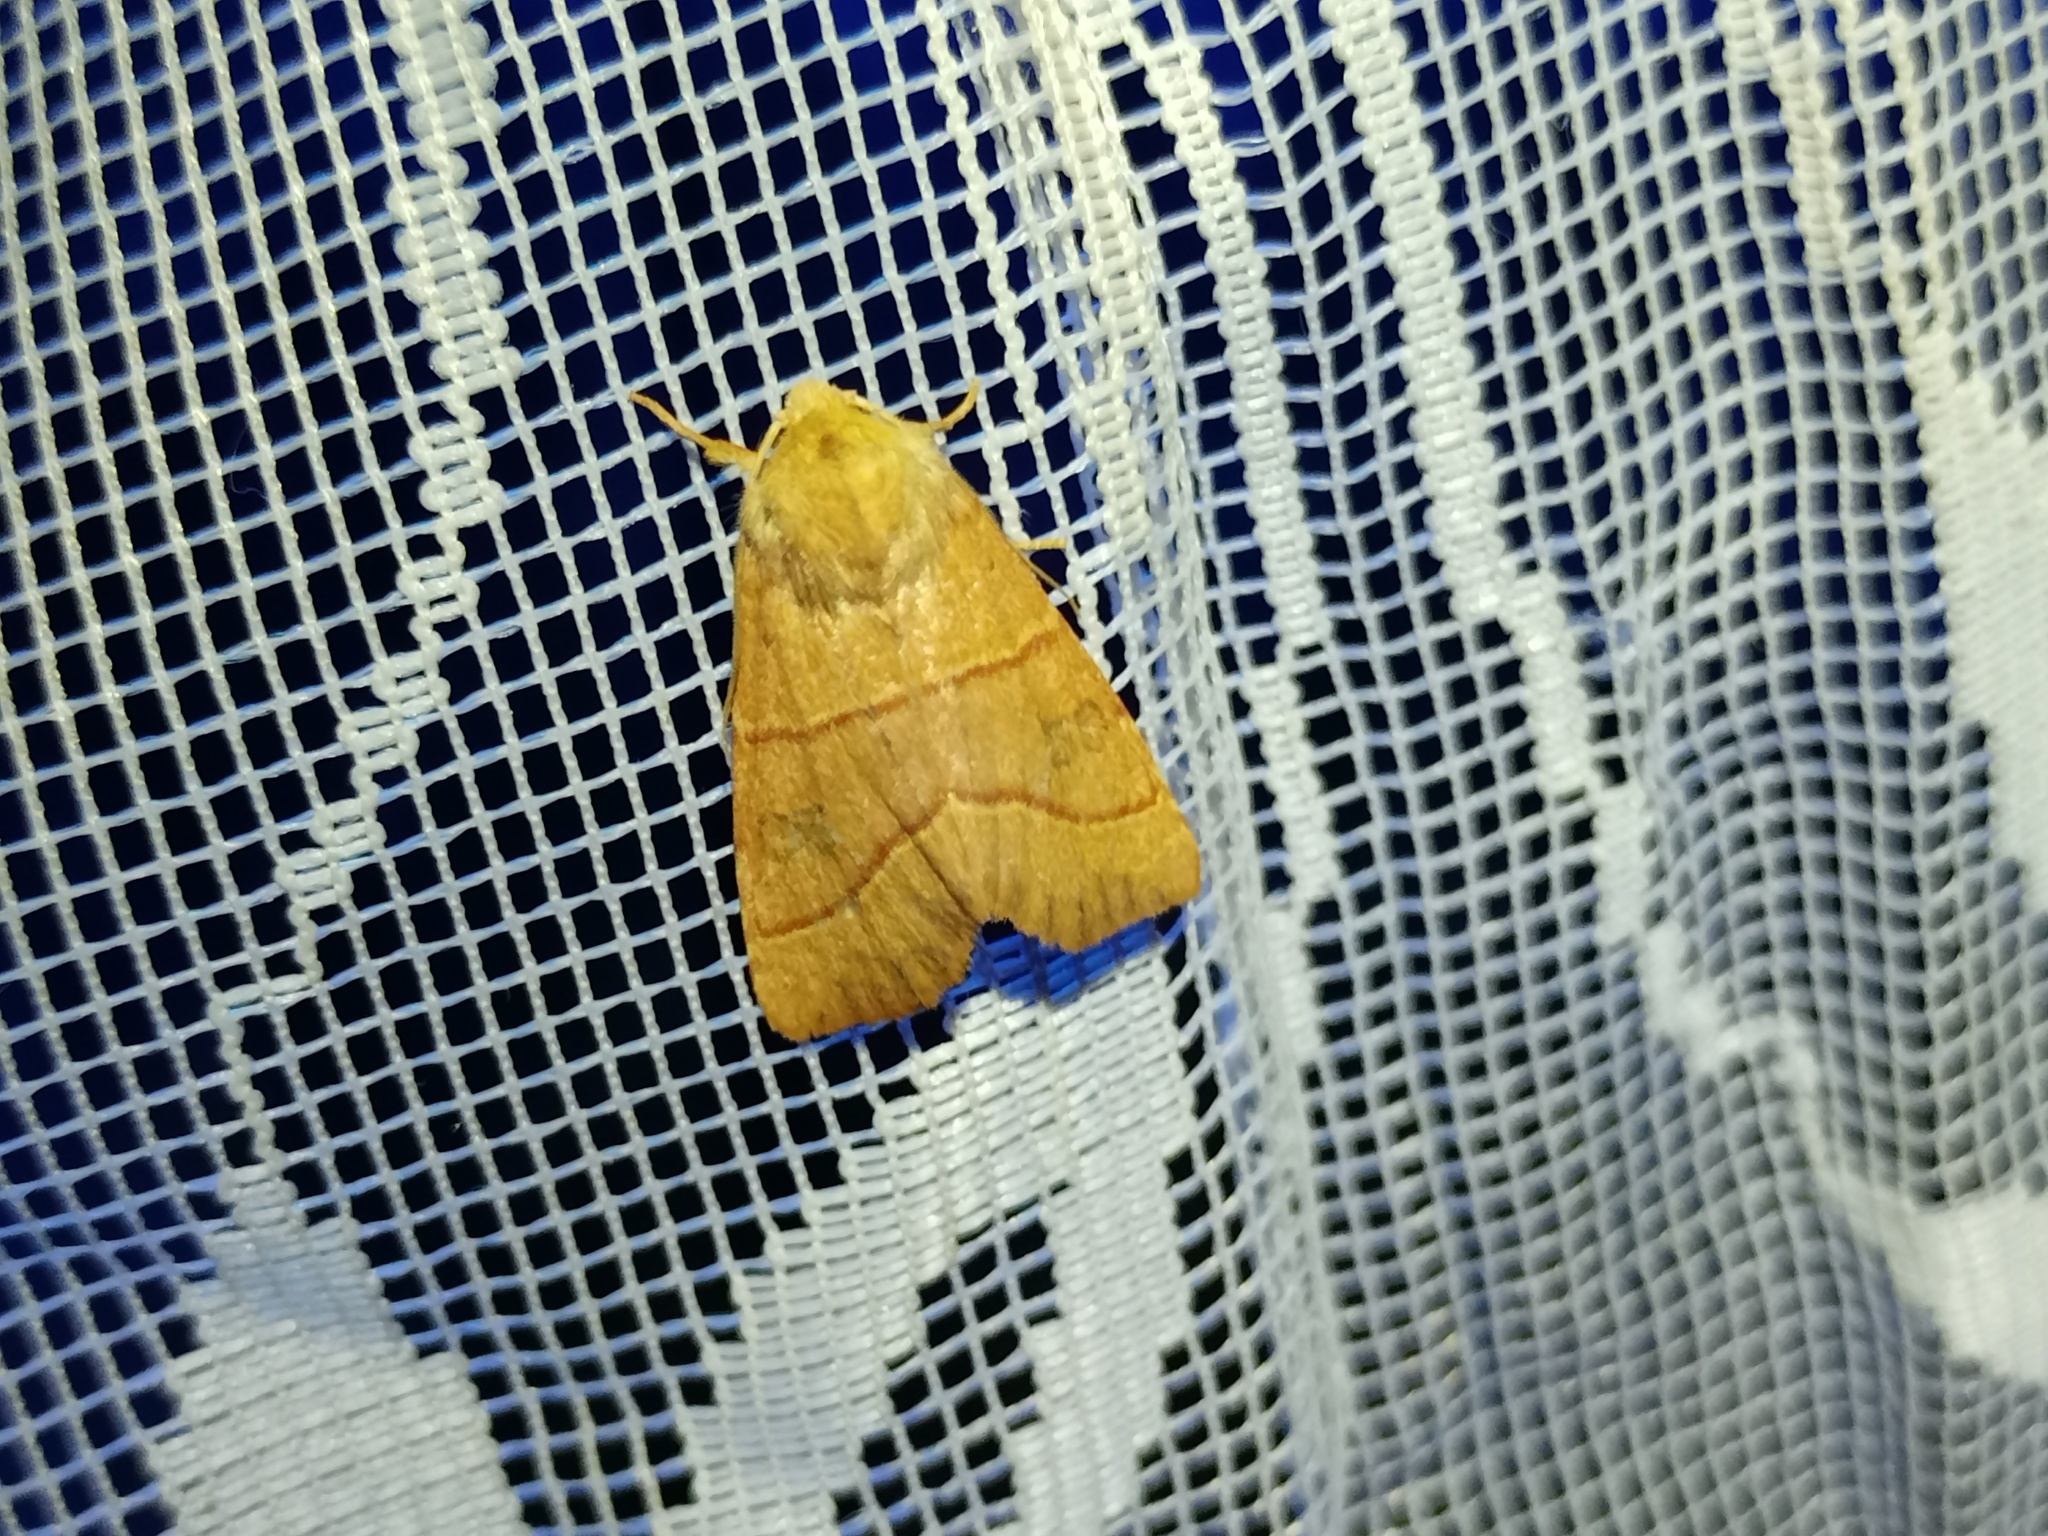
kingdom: Animalia
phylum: Arthropoda
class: Insecta
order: Lepidoptera
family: Noctuidae
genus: Atethmia
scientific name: Atethmia centrago
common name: Centre-barred sallow
